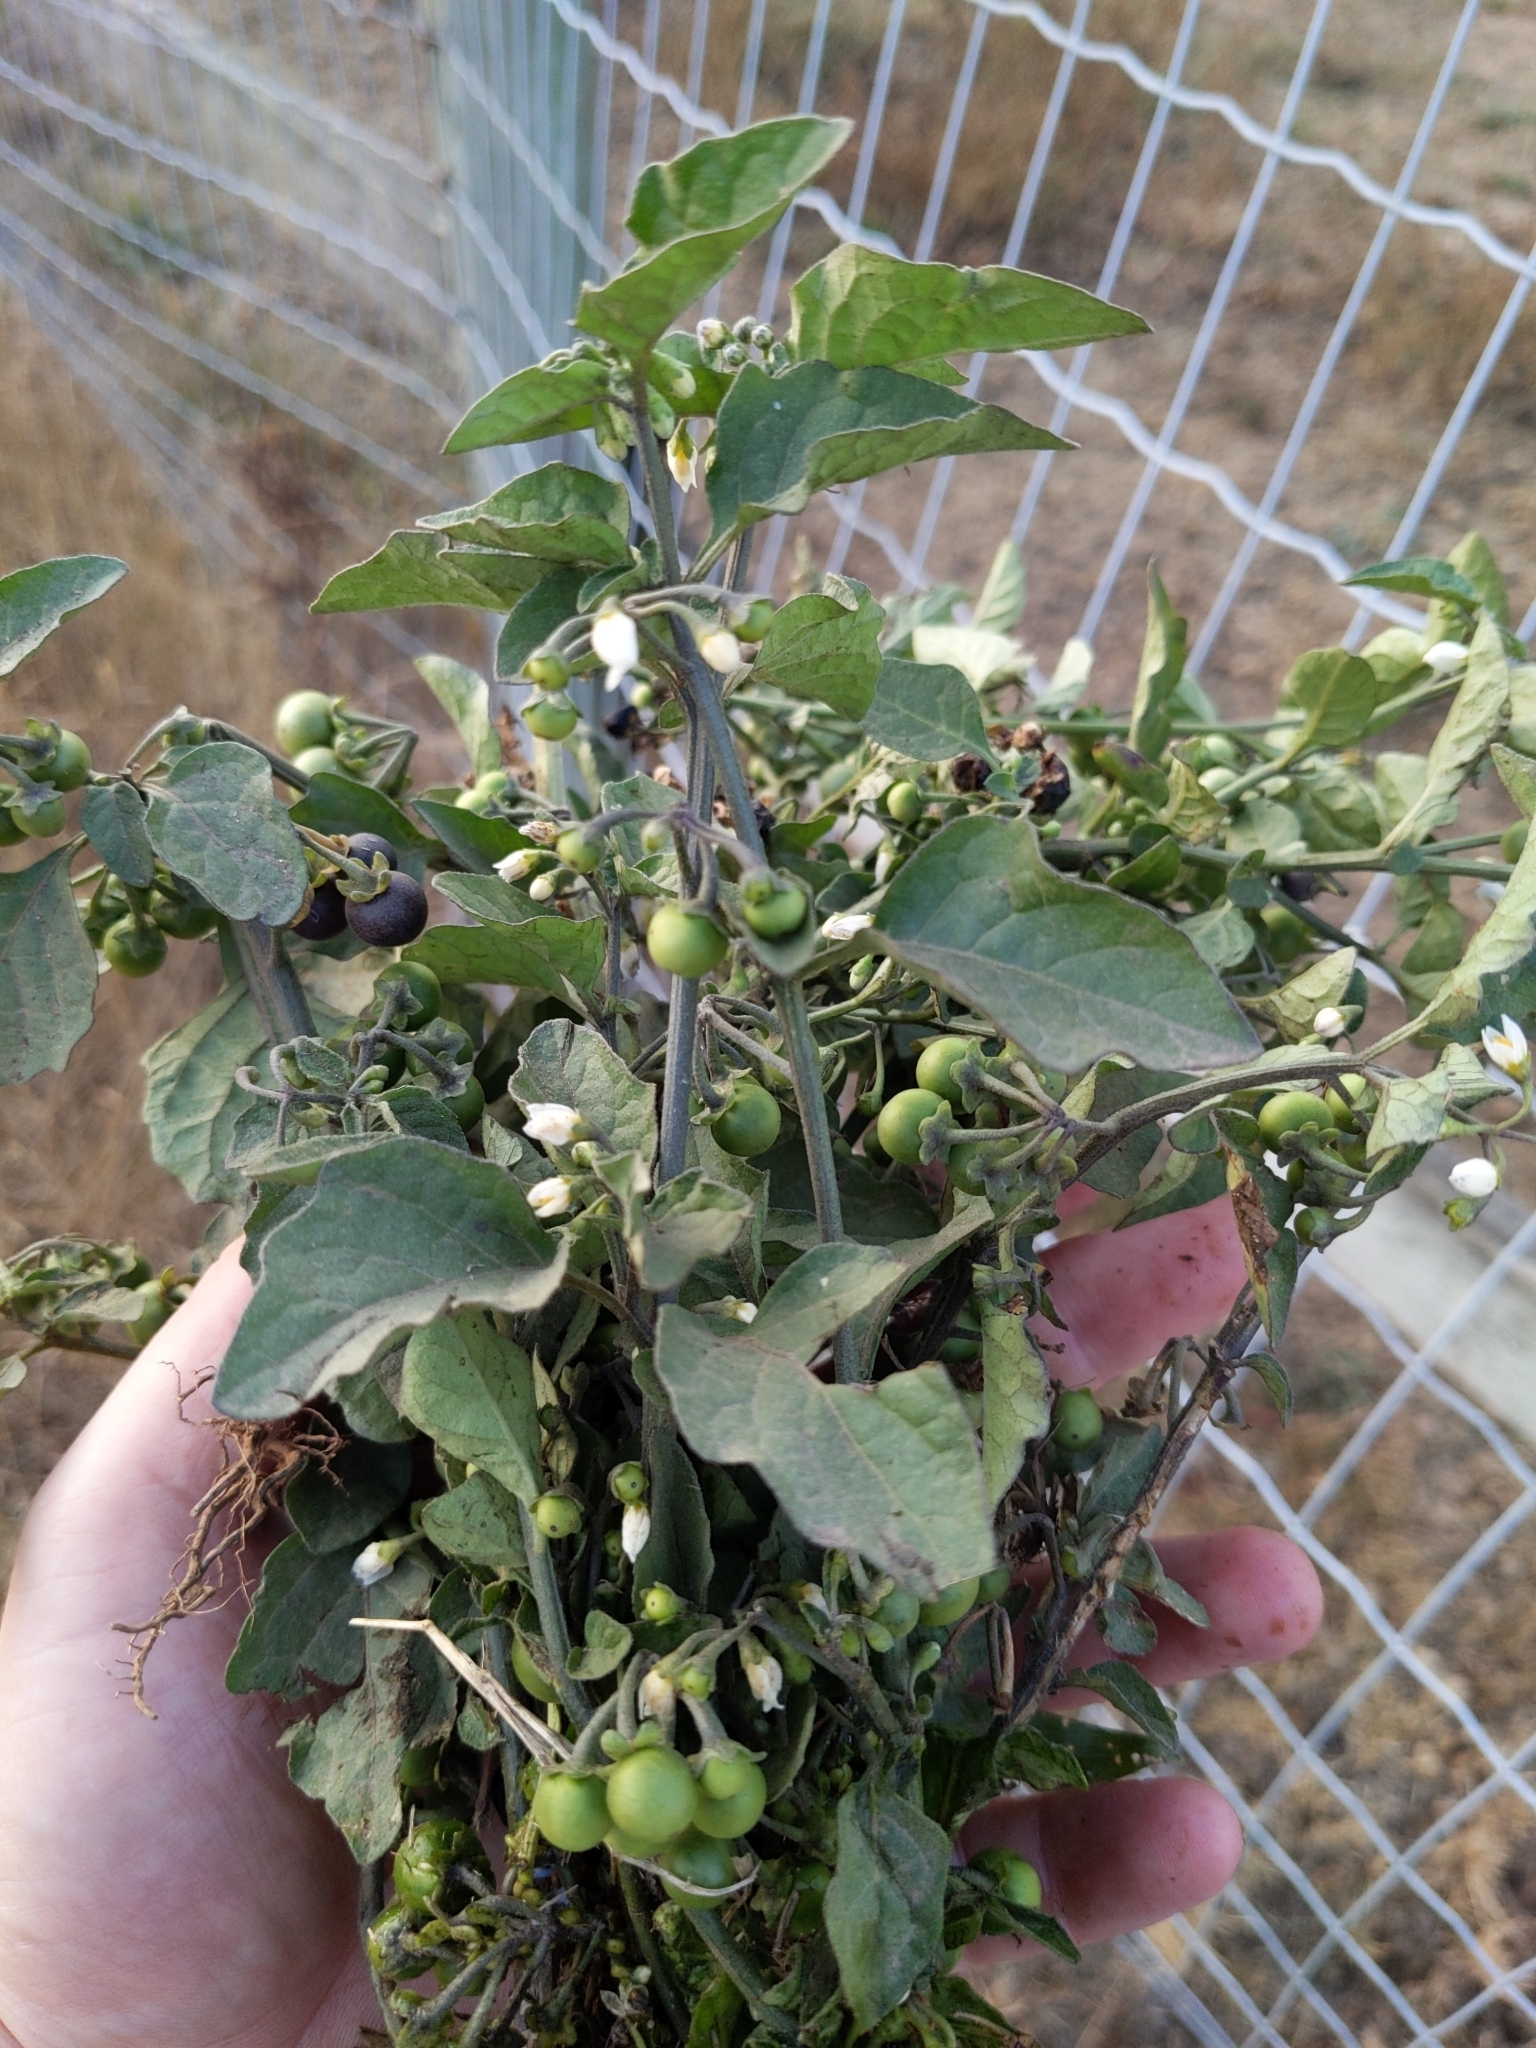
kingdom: Plantae
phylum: Tracheophyta
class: Magnoliopsida
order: Solanales
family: Solanaceae
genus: Solanum
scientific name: Solanum nigrum
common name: Black nightshade
